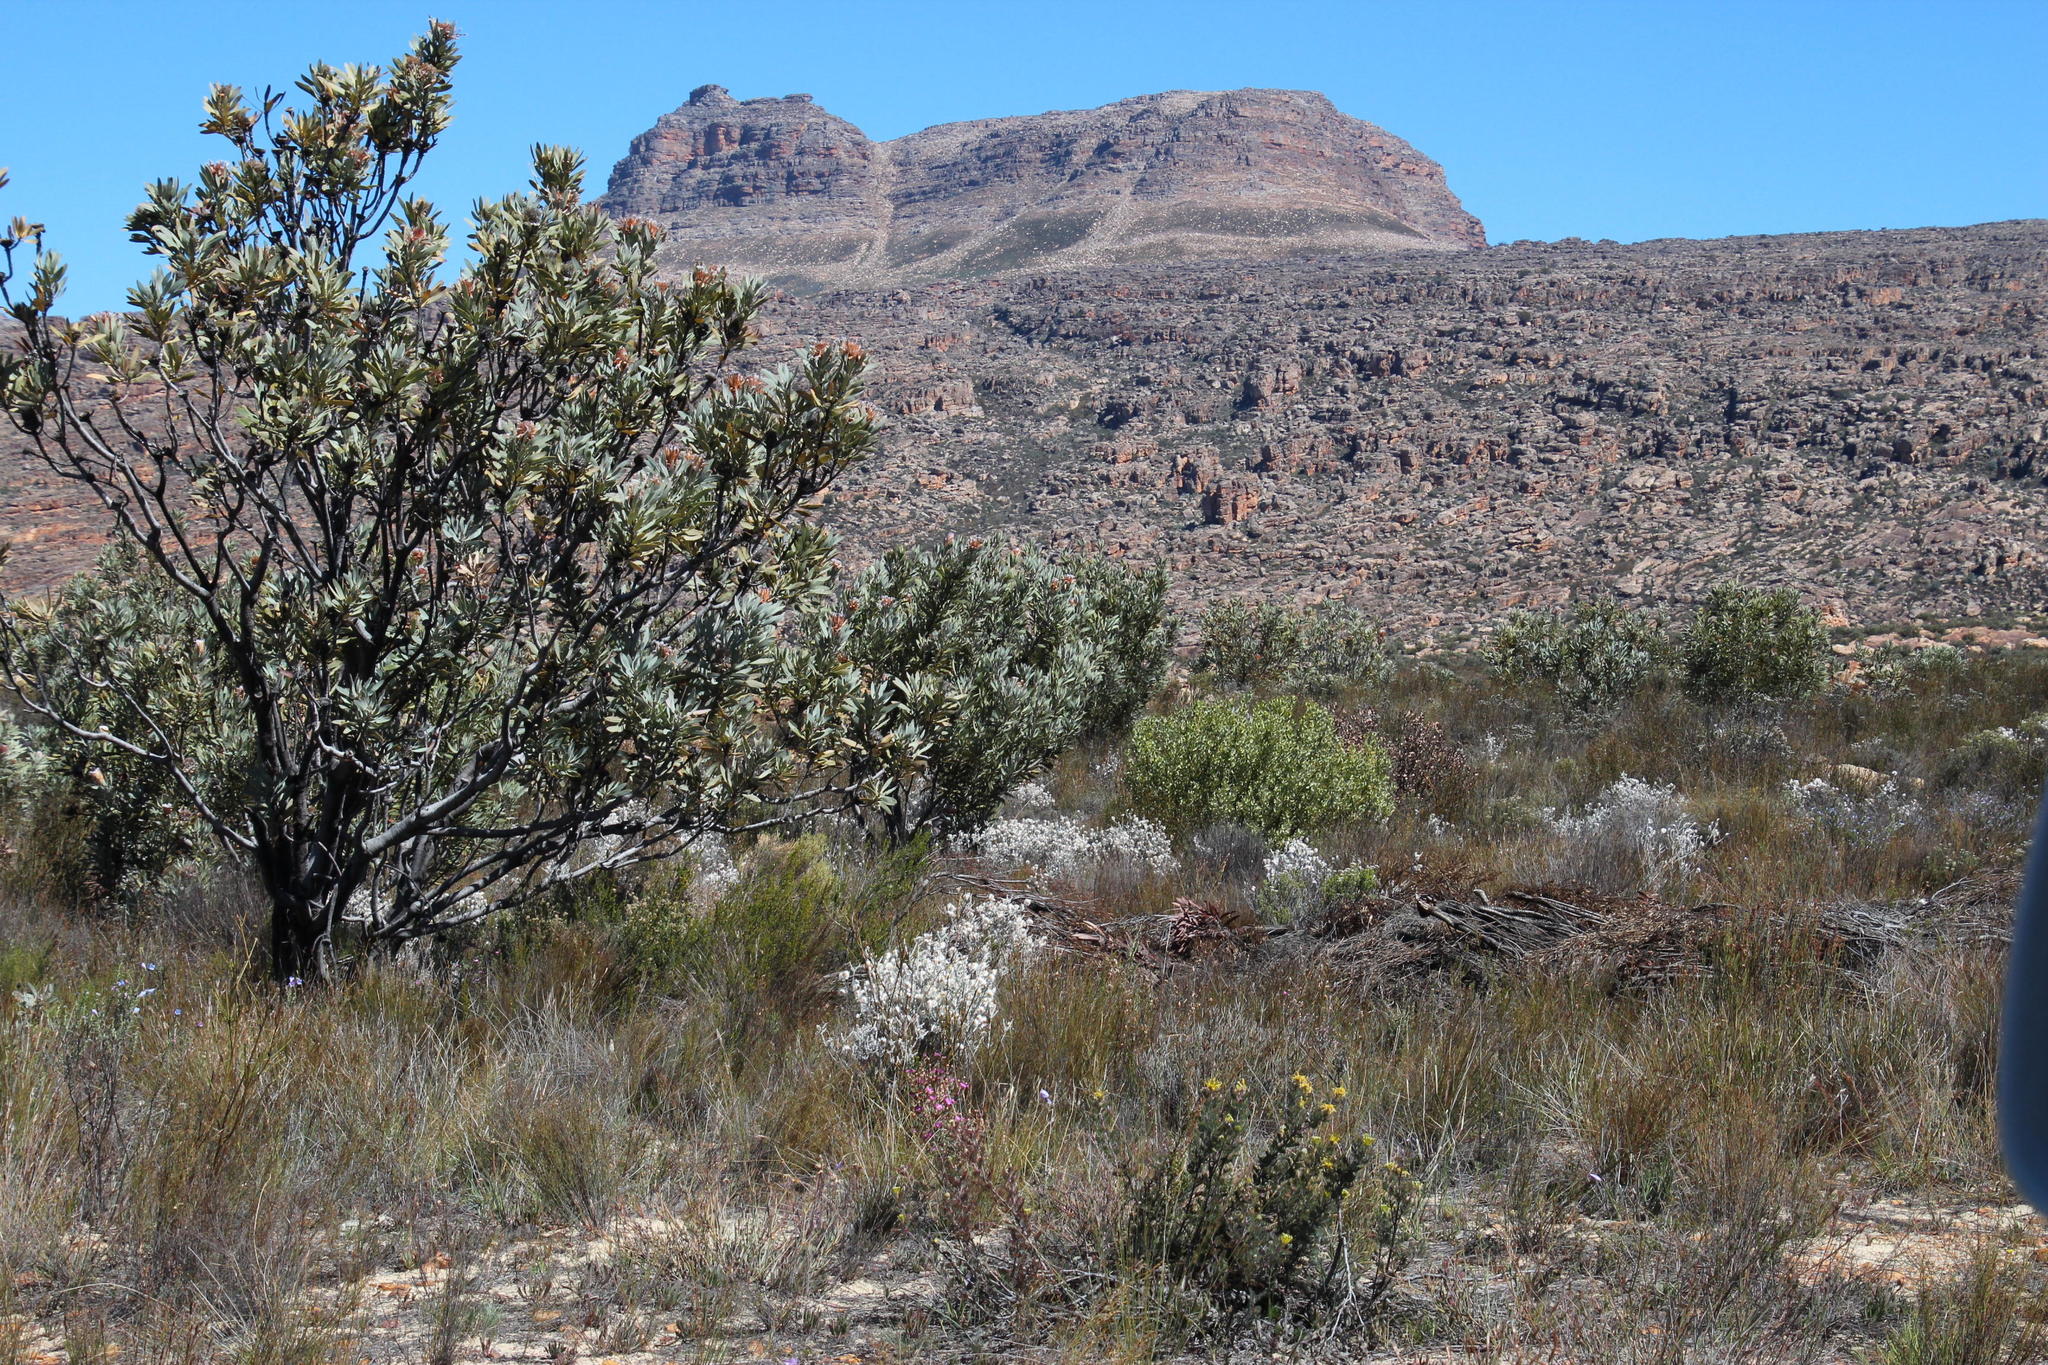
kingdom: Plantae
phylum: Tracheophyta
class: Magnoliopsida
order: Proteales
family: Proteaceae
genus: Protea
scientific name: Protea laurifolia
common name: Grey-leaf sugarbsh
